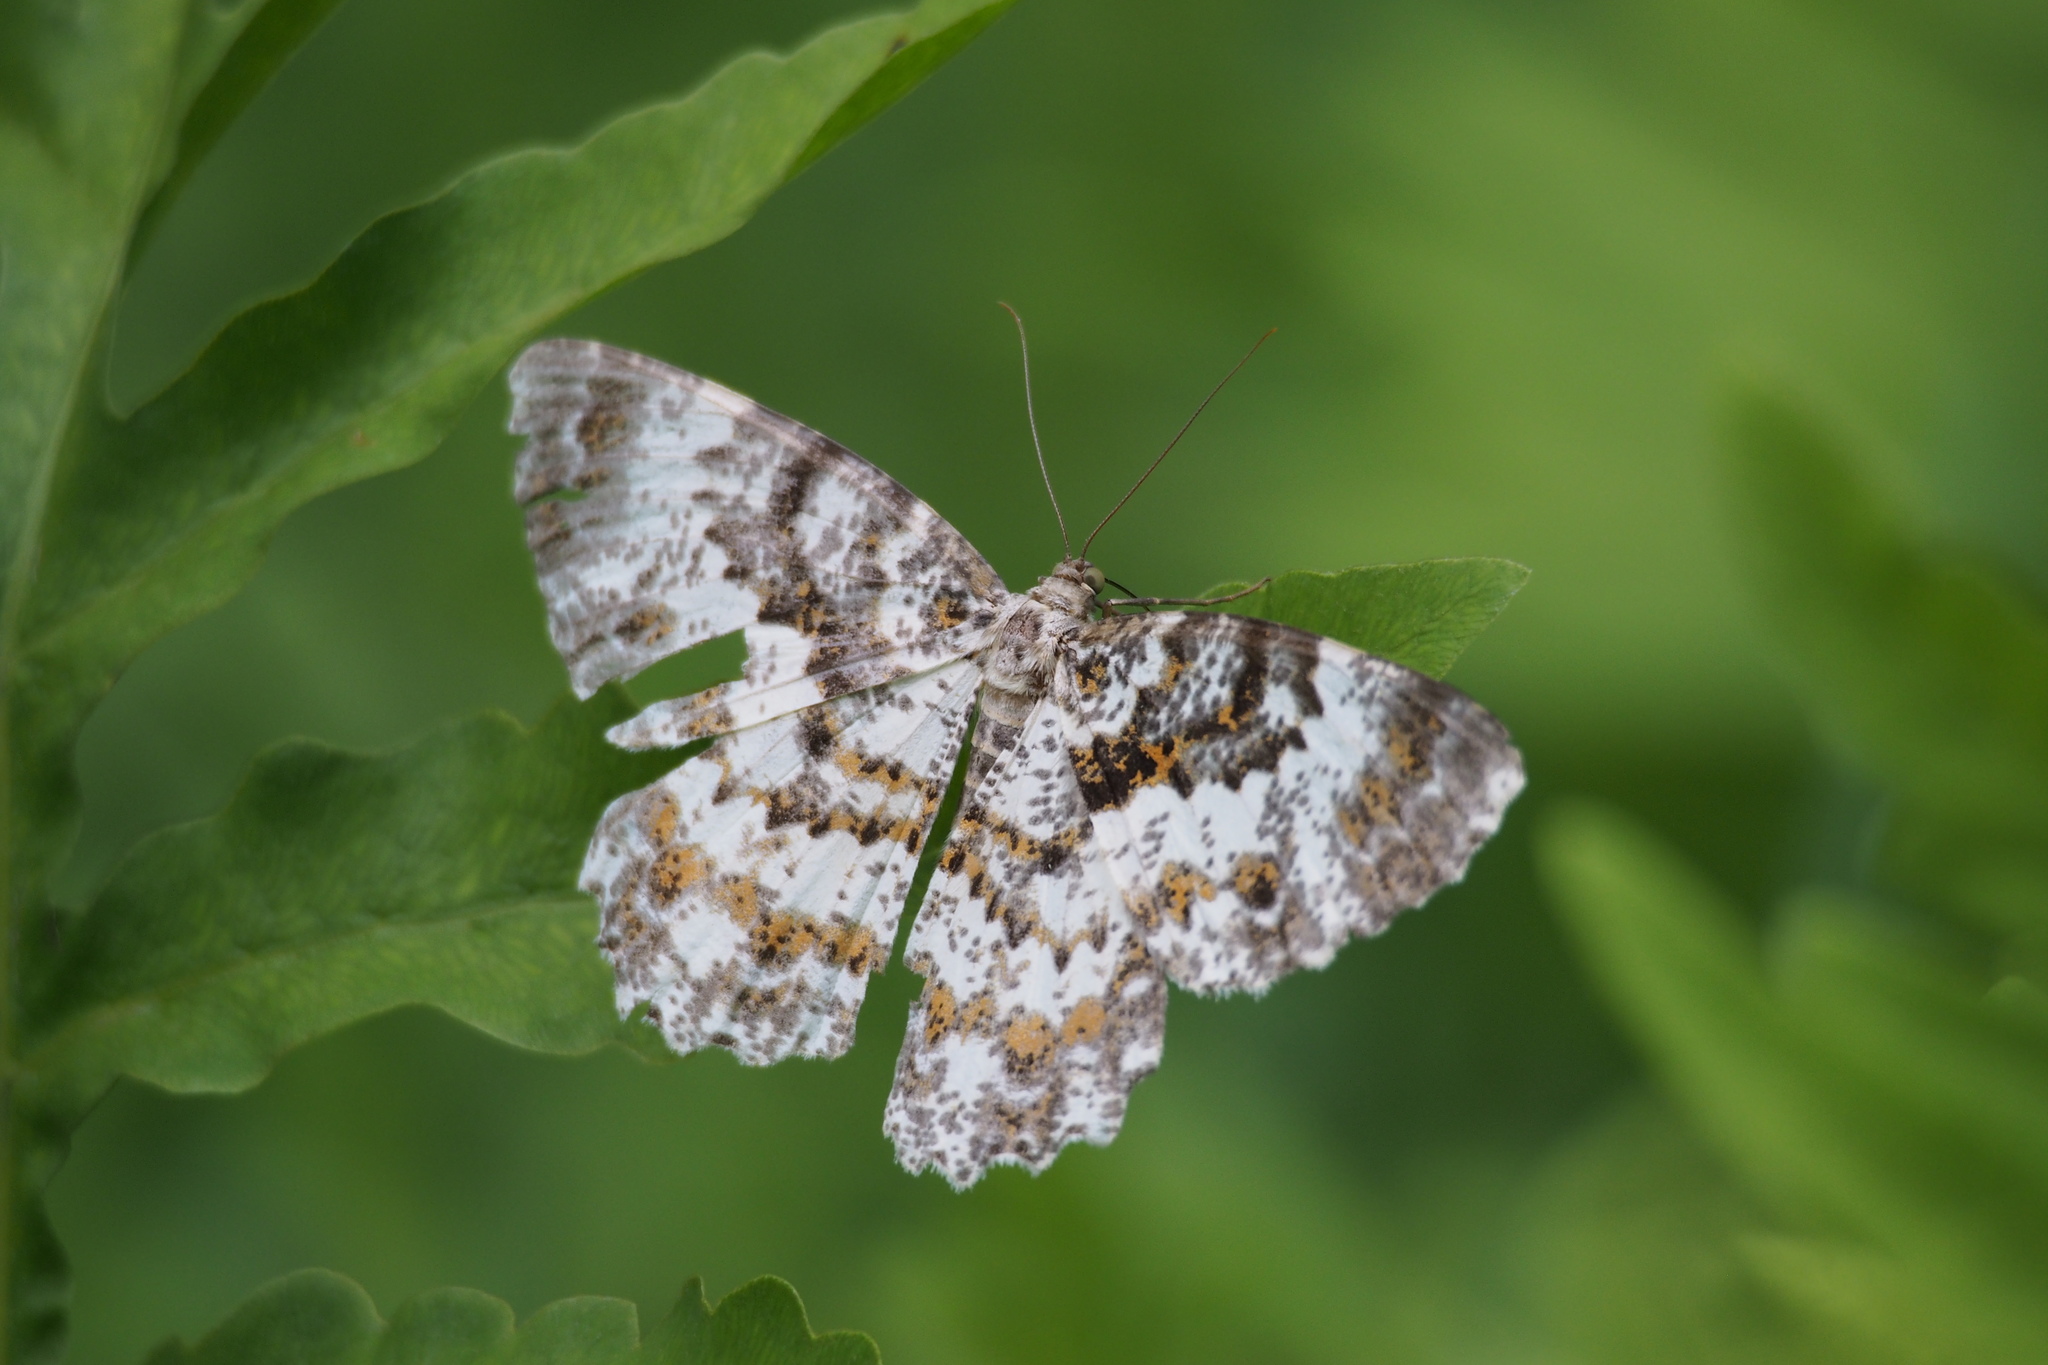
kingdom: Animalia
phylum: Arthropoda
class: Insecta
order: Lepidoptera
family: Geometridae
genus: Amblychia
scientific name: Amblychia insueta
